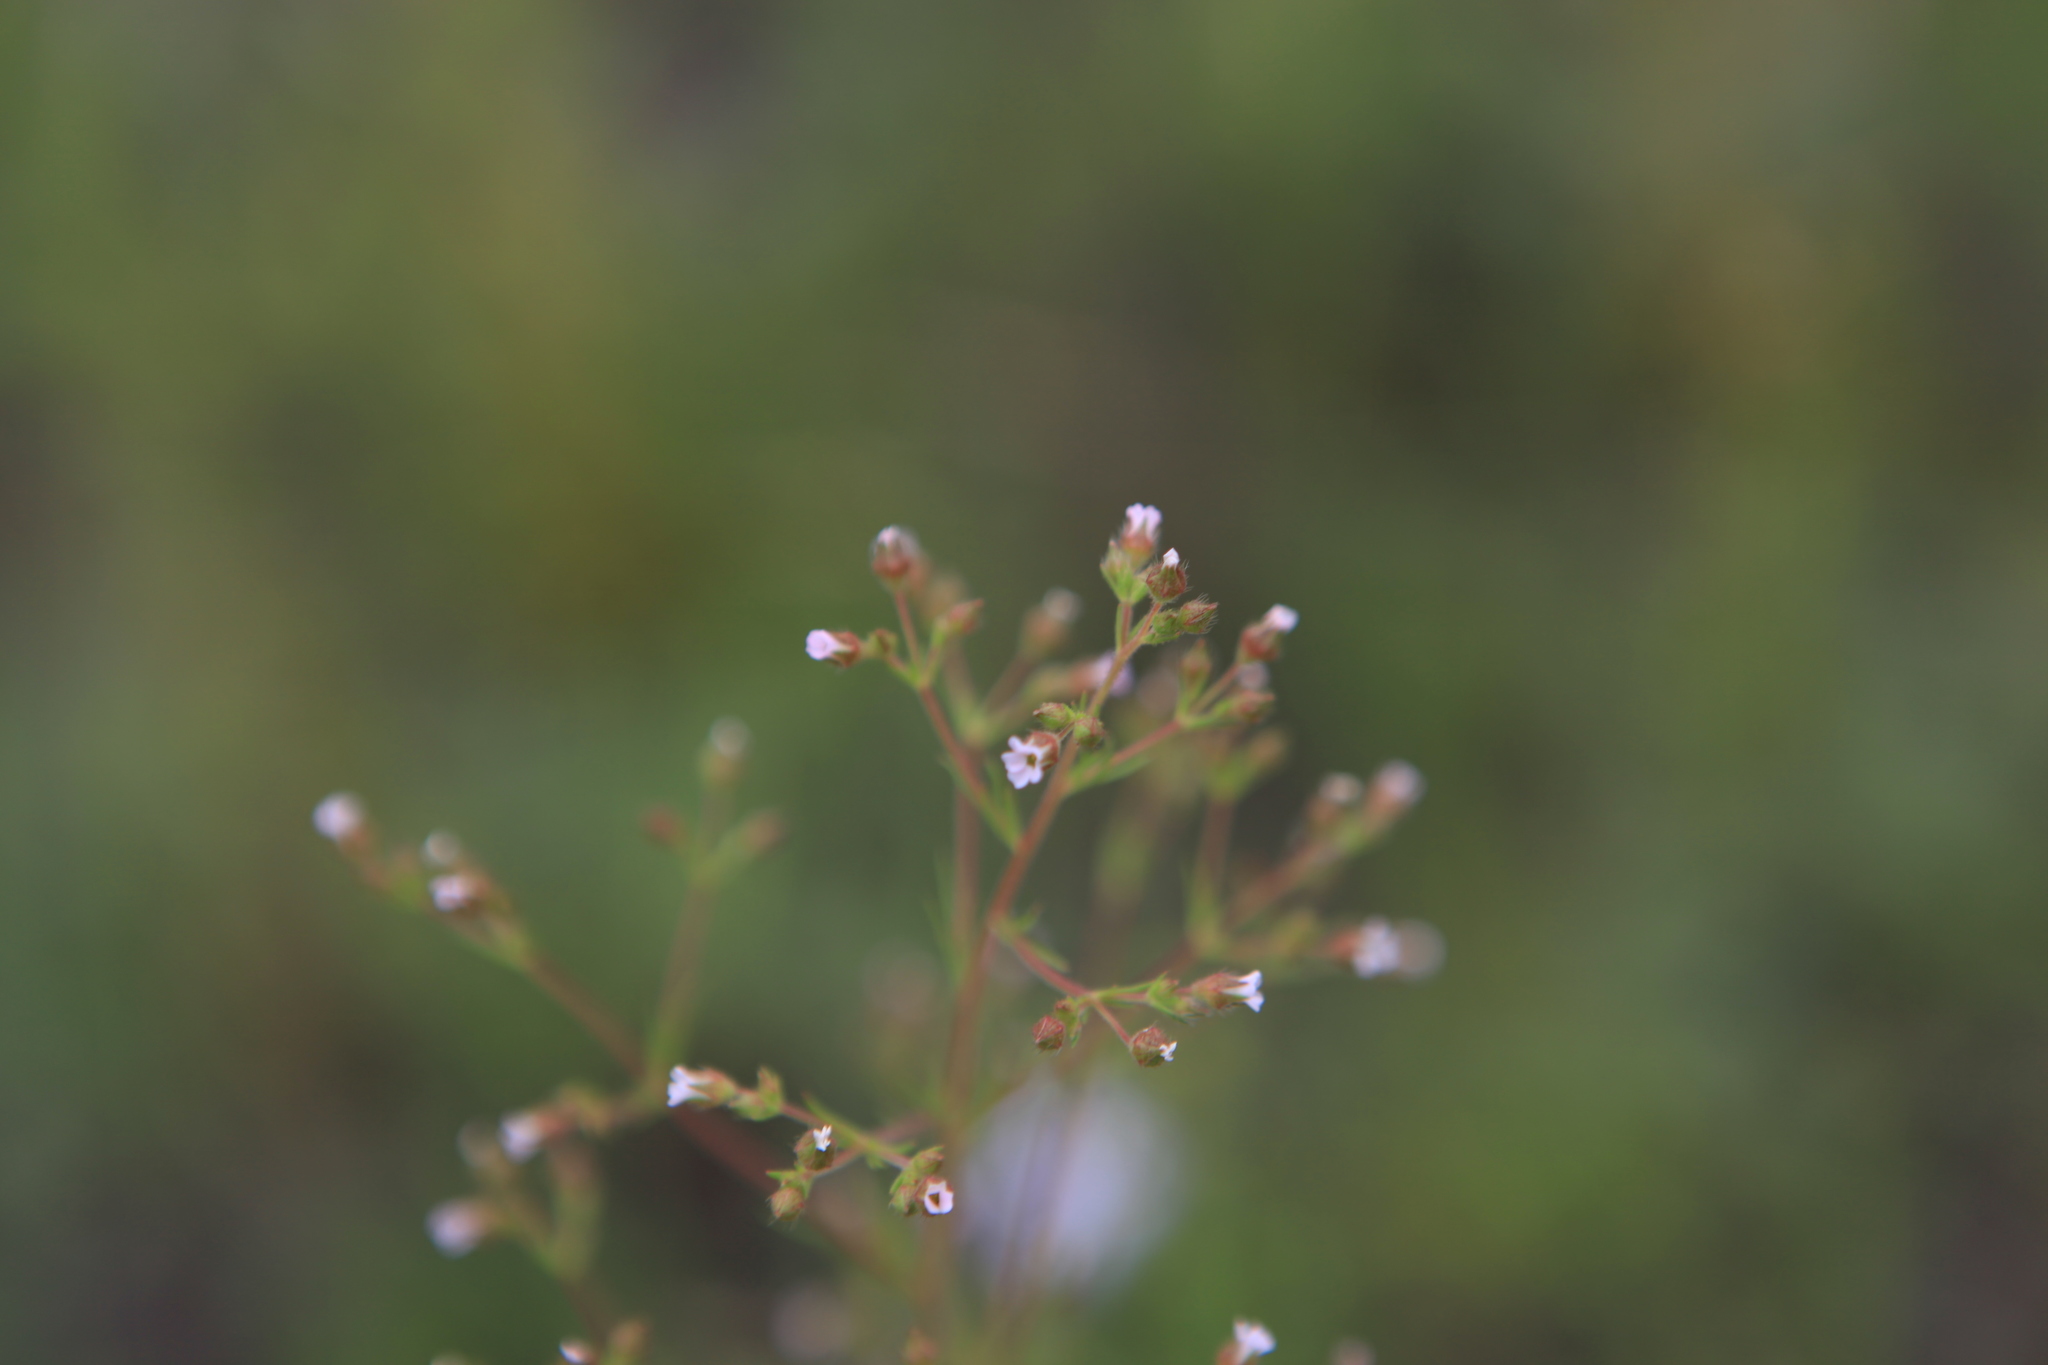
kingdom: Plantae
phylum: Tracheophyta
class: Magnoliopsida
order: Rosales
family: Rosaceae
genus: Chamaerhodos
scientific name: Chamaerhodos erecta
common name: American chamaerhodos
